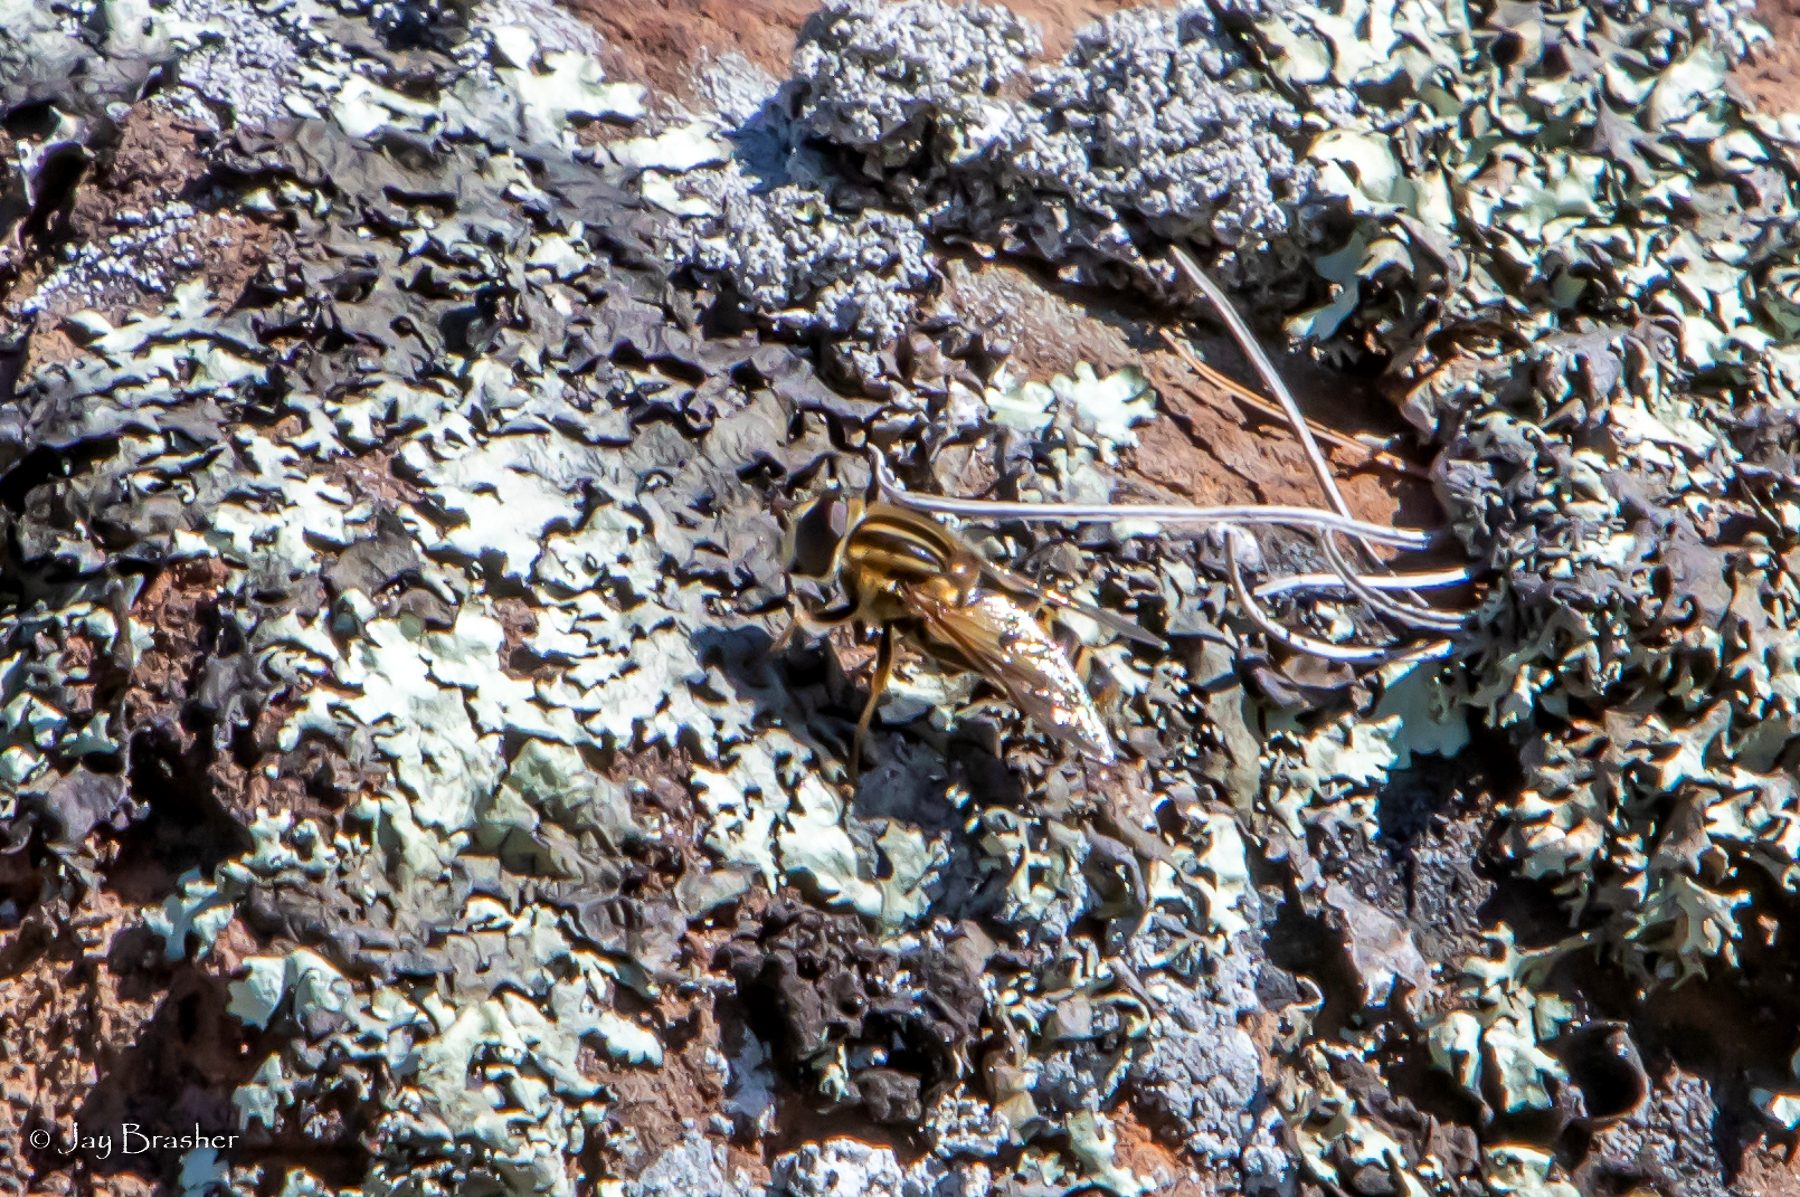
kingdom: Animalia
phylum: Arthropoda
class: Insecta
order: Diptera
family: Syrphidae
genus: Helophilus
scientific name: Helophilus fasciatus
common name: Narrow-headed marsh fly
